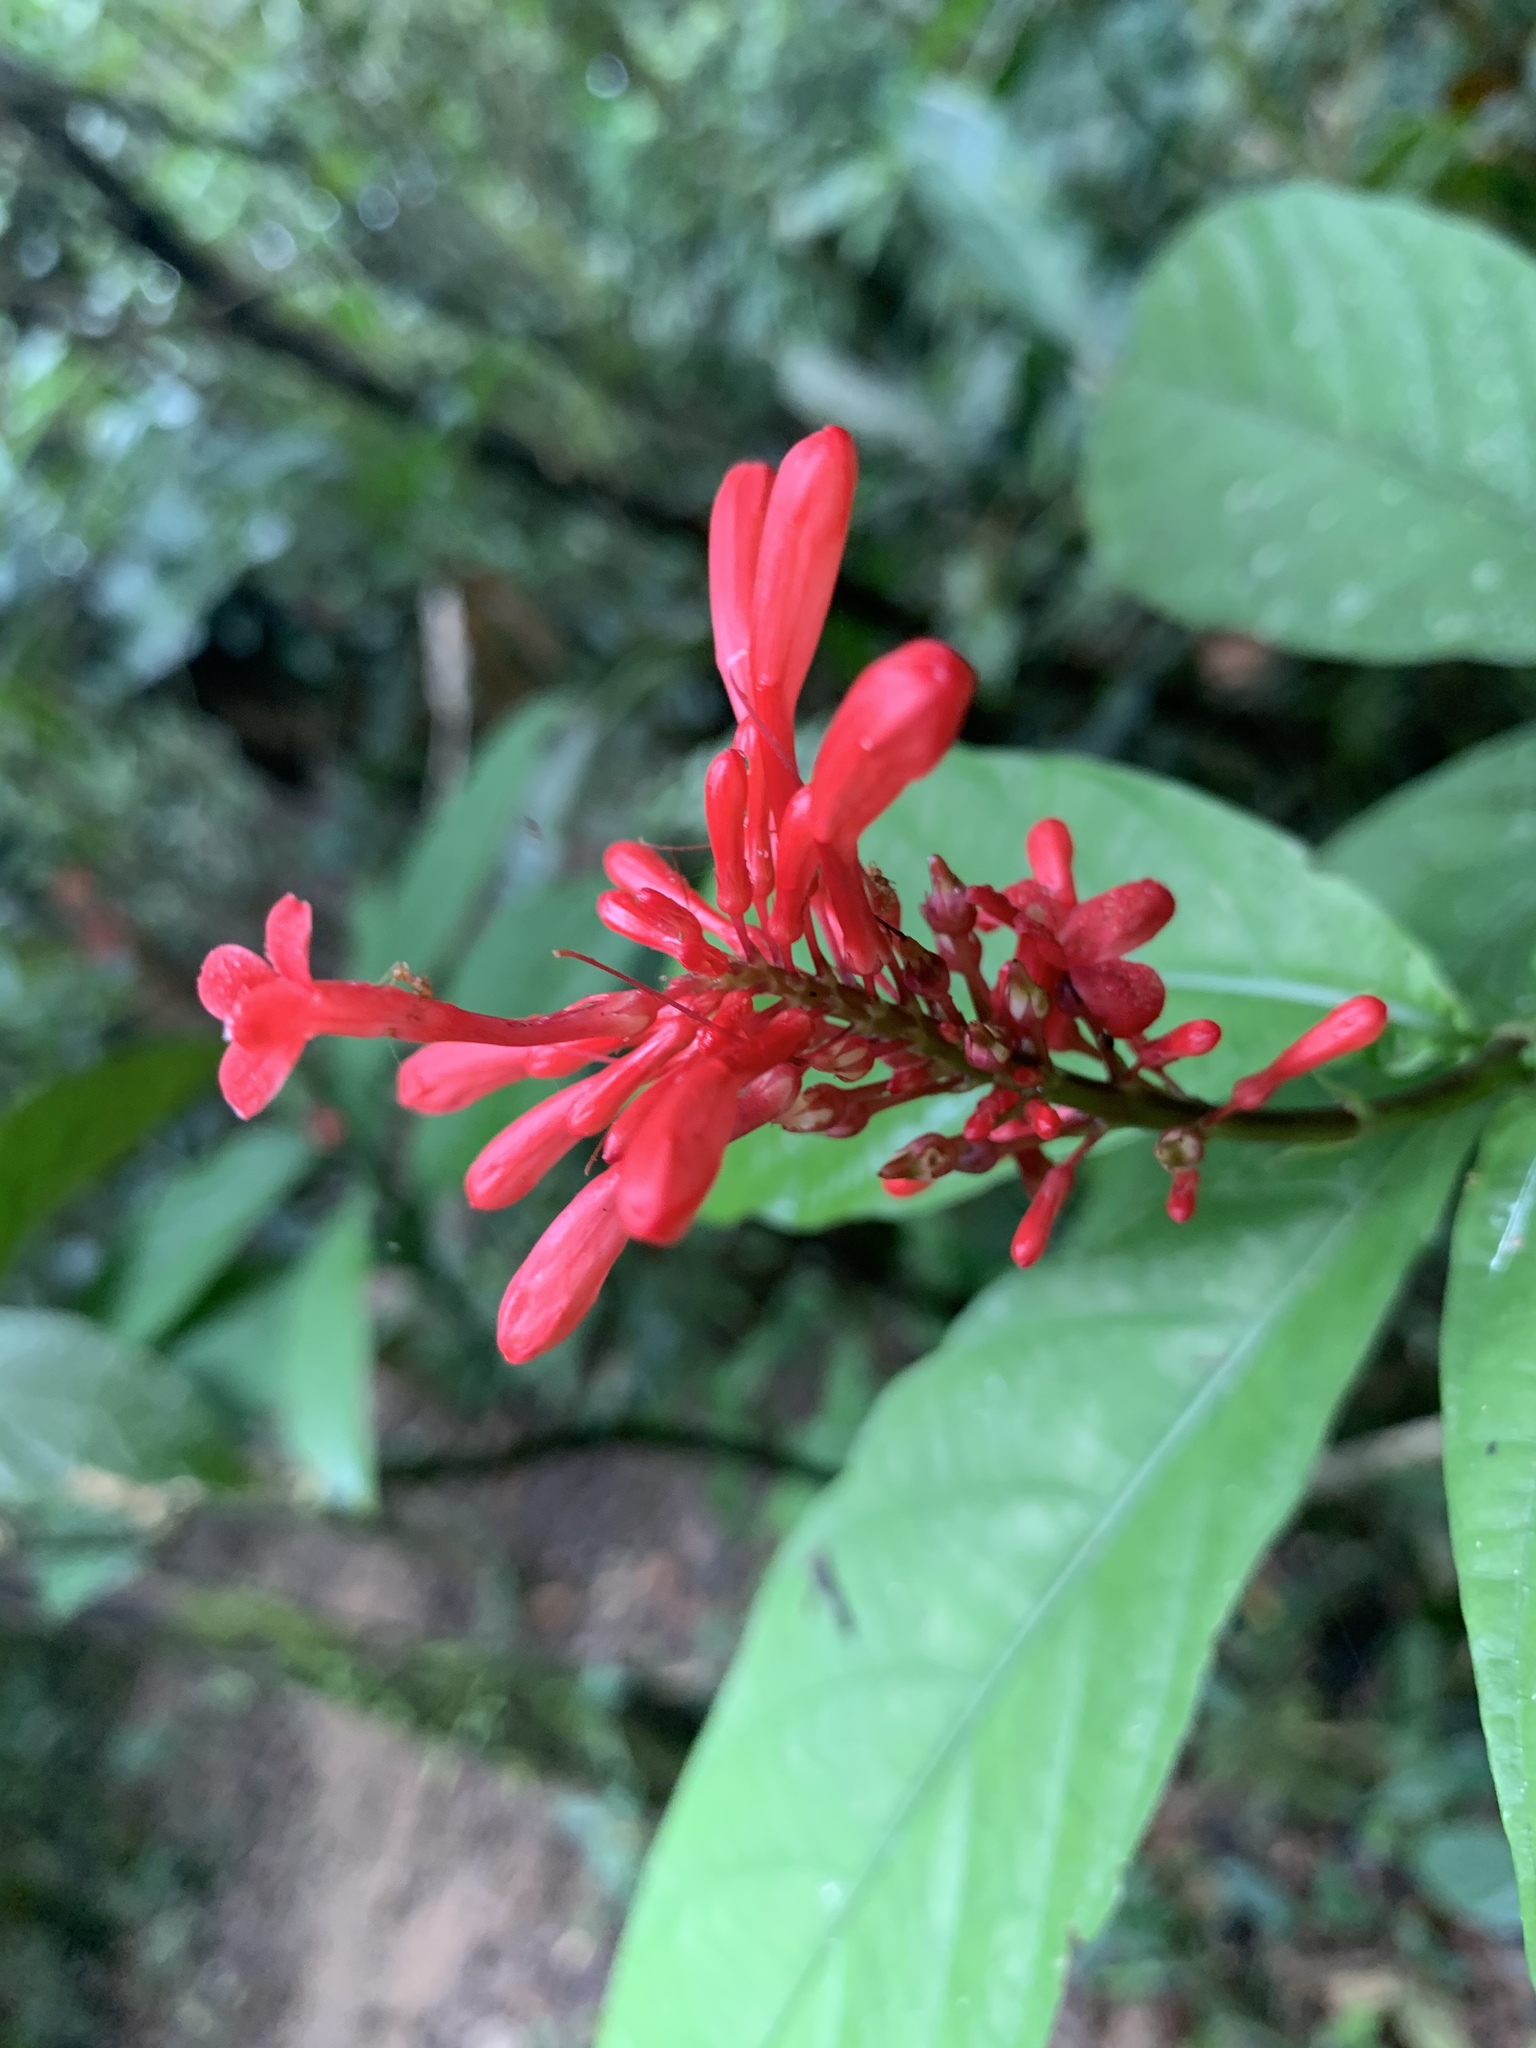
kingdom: Plantae
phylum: Tracheophyta
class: Magnoliopsida
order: Lamiales
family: Acanthaceae
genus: Odontonema
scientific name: Odontonema tubaeforme
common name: Firespike
